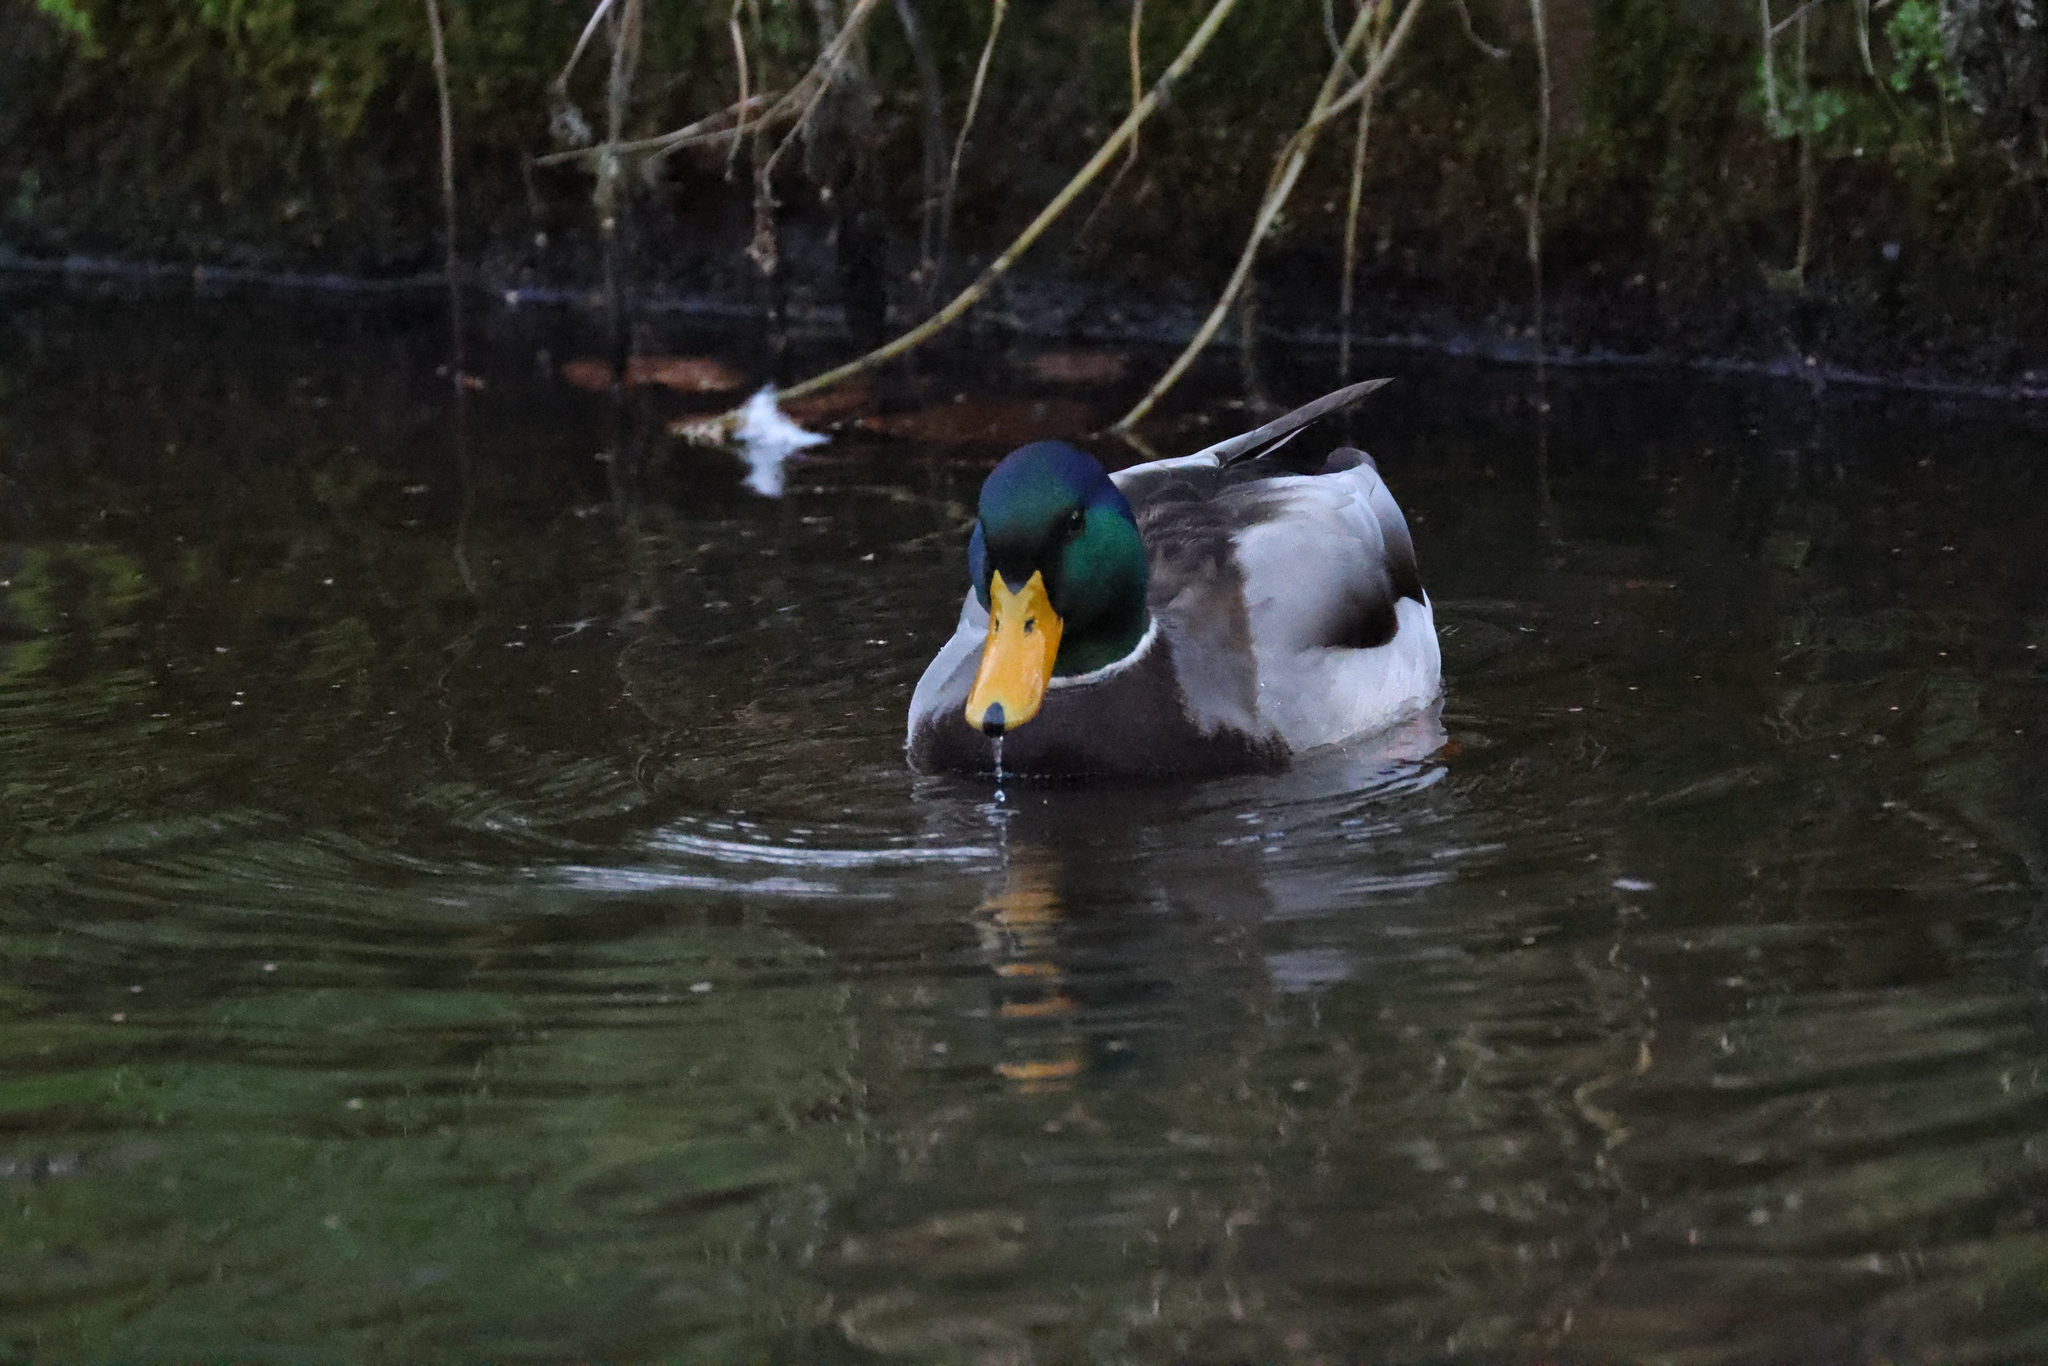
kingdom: Animalia
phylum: Chordata
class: Aves
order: Anseriformes
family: Anatidae
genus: Anas
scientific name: Anas platyrhynchos
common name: Mallard
